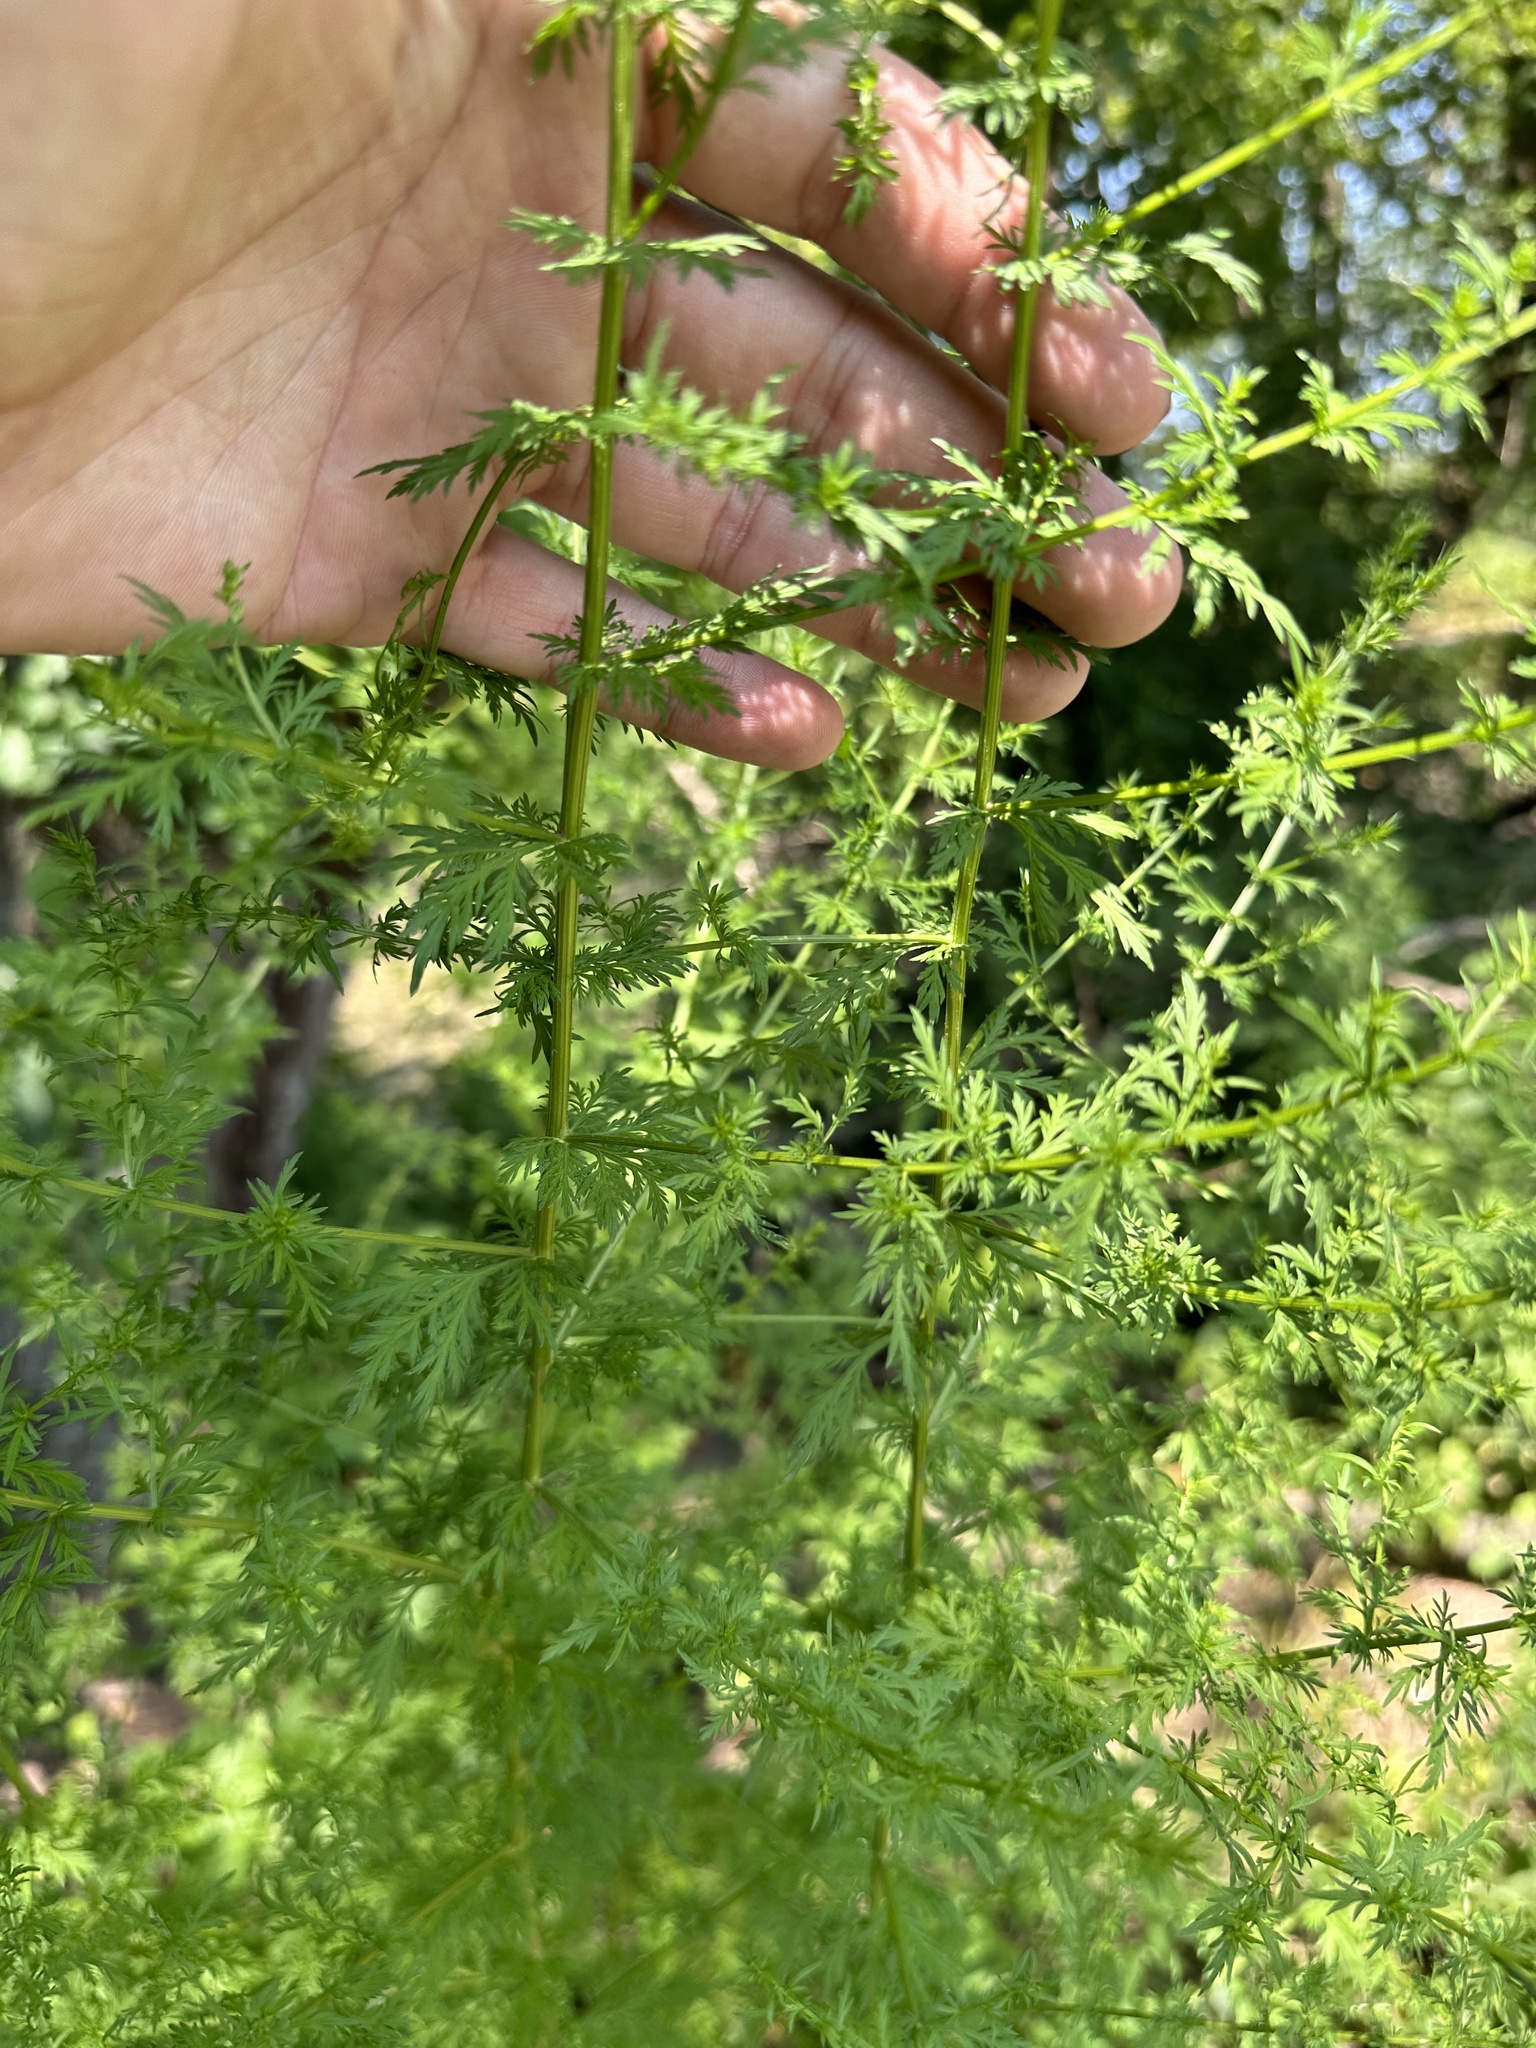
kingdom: Plantae
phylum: Tracheophyta
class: Magnoliopsida
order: Asterales
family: Asteraceae
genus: Artemisia
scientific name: Artemisia annua
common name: Sweet sagewort
